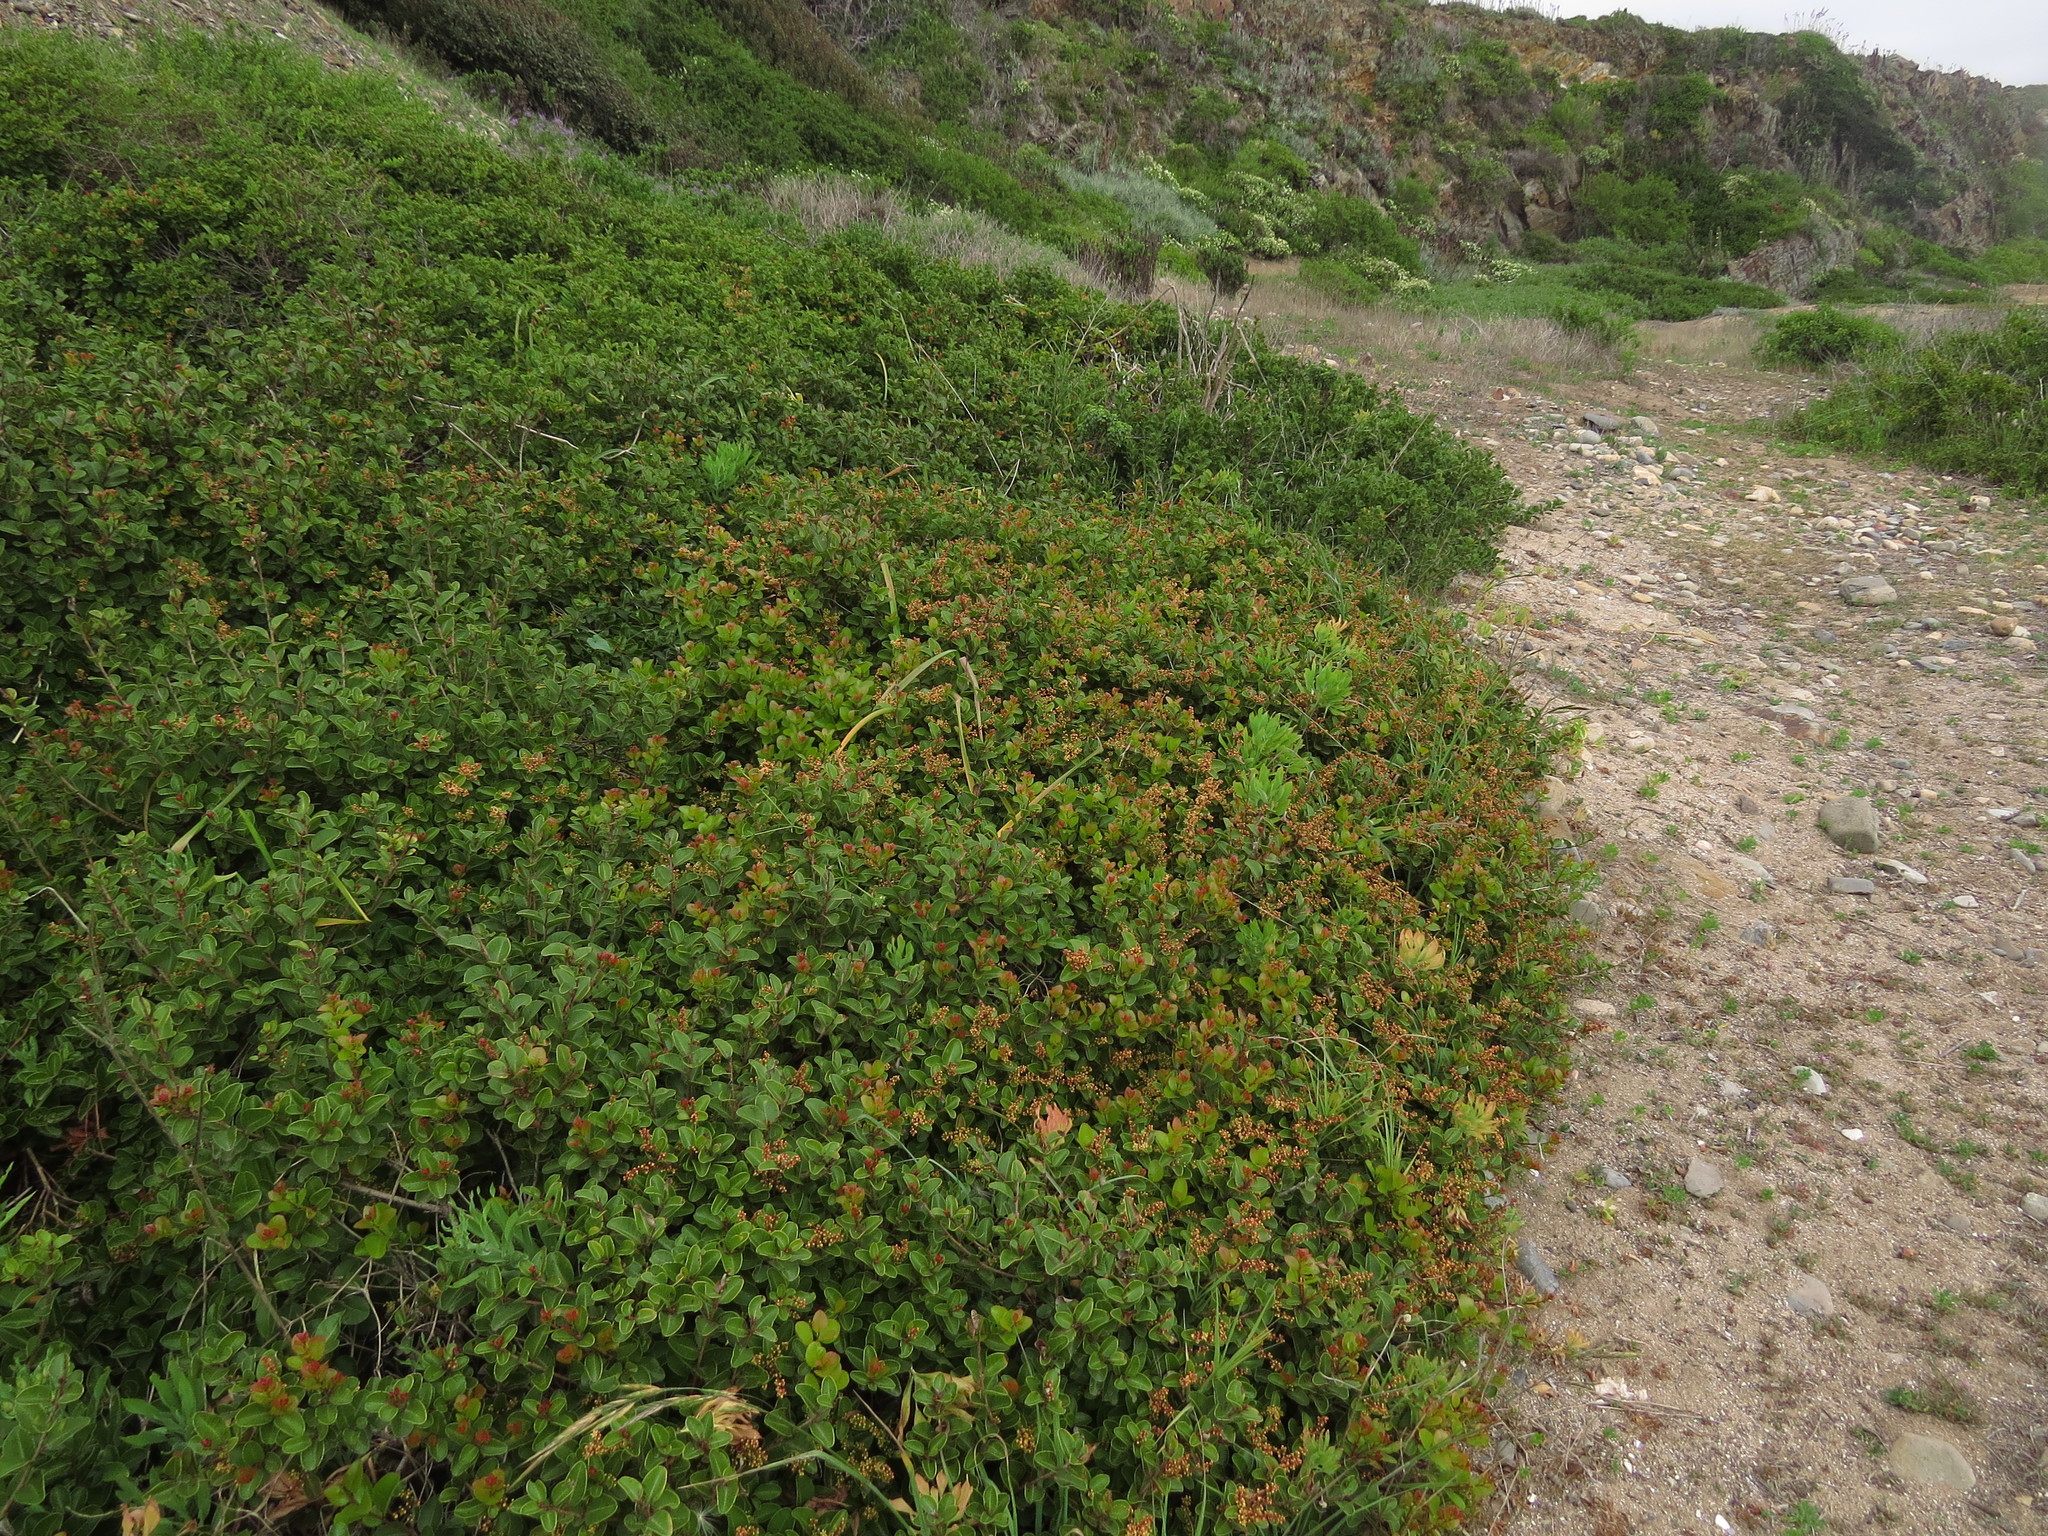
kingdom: Plantae
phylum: Tracheophyta
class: Magnoliopsida
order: Sapindales
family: Anacardiaceae
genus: Lithraea
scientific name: Lithraea caustica
